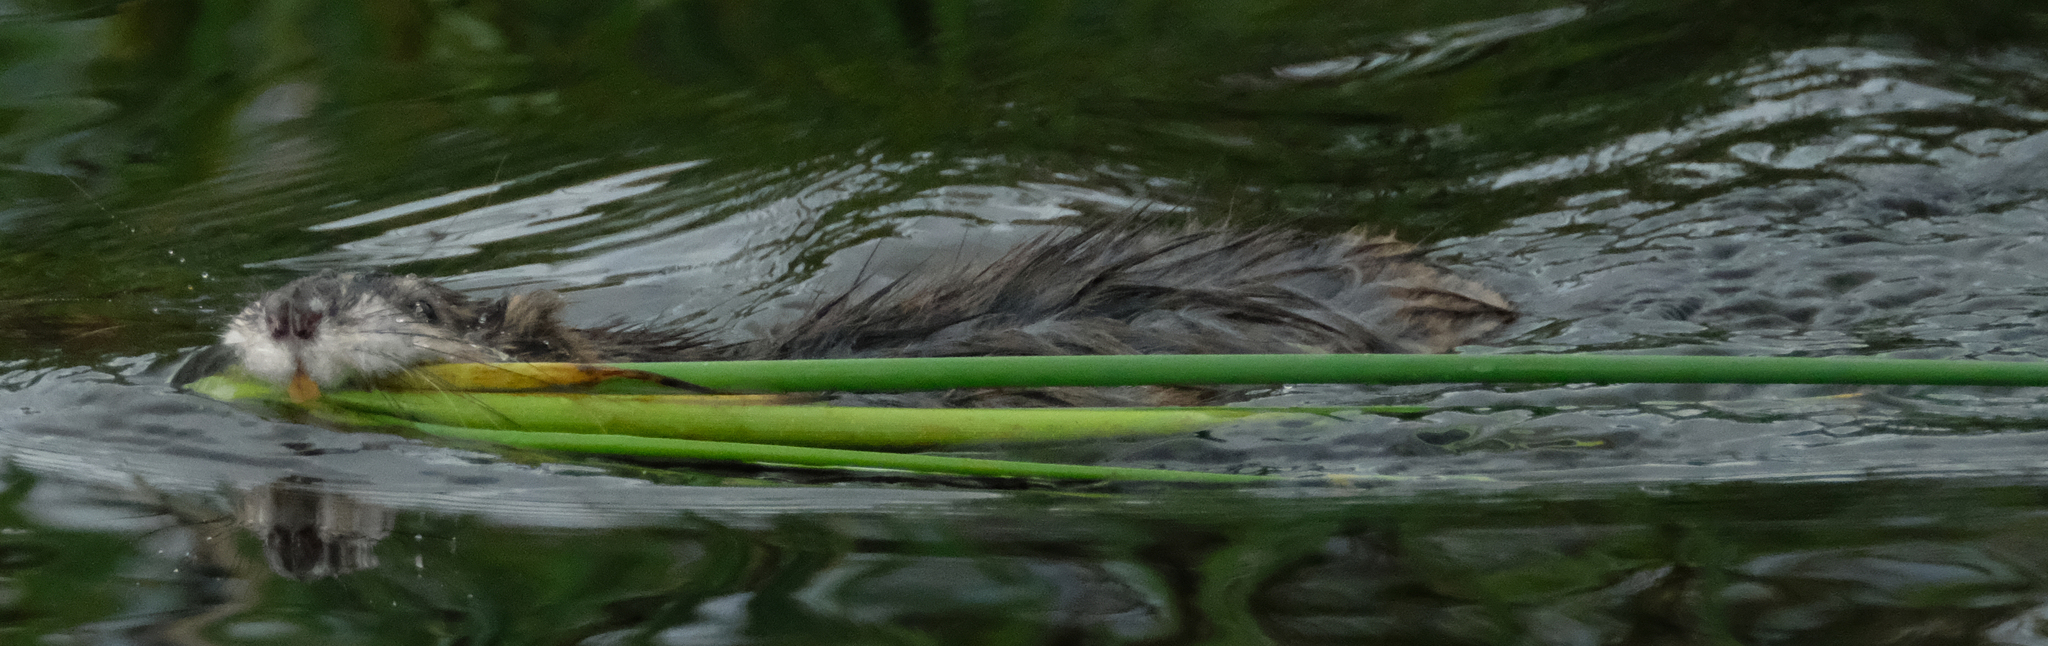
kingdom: Animalia
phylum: Chordata
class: Mammalia
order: Rodentia
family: Cricetidae
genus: Ondatra
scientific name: Ondatra zibethicus
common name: Muskrat
